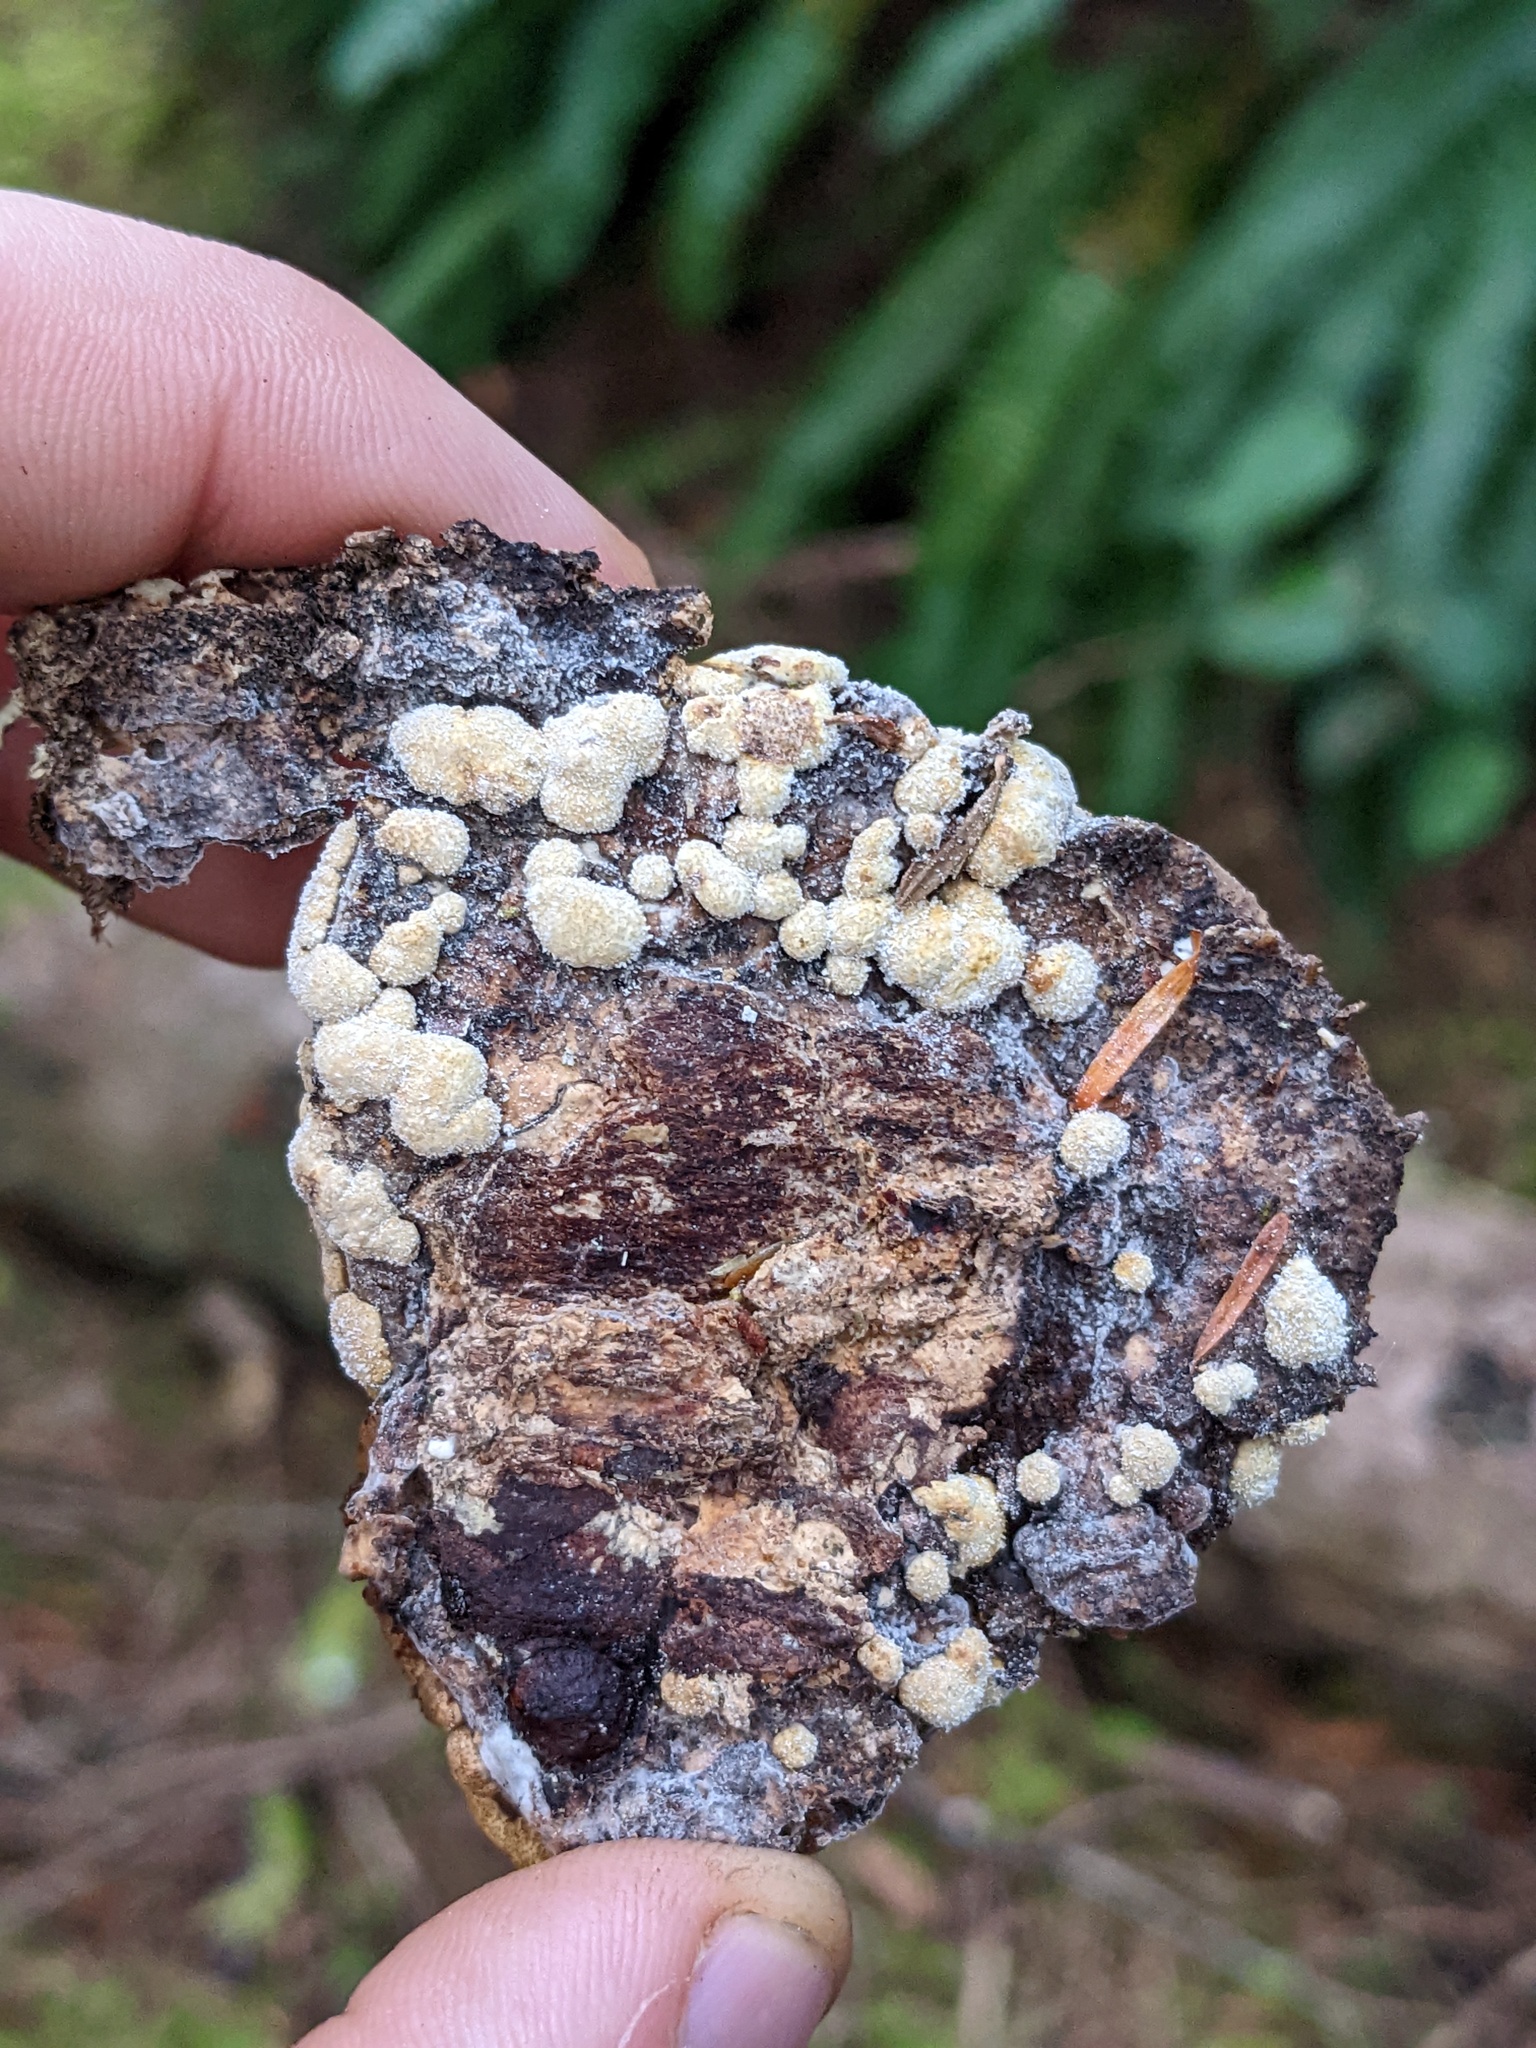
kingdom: Fungi
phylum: Ascomycota
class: Sordariomycetes
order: Hypocreales
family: Hypocreaceae
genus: Trichoderma
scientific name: Trichoderma pulvinatum
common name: Ochre cushion
